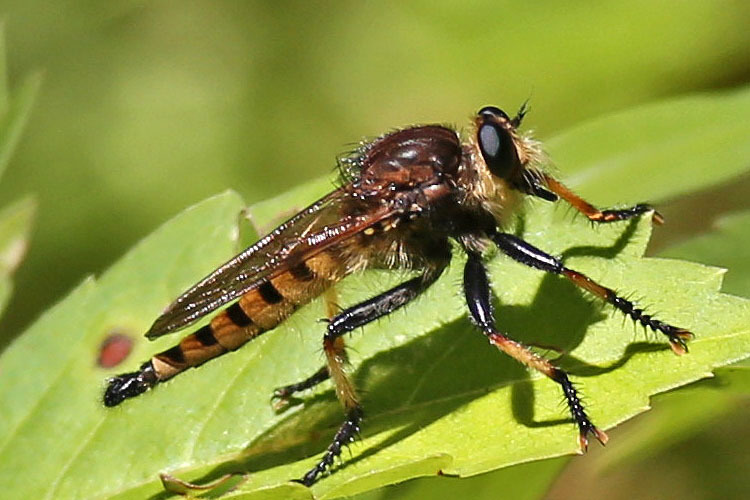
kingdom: Animalia
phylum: Arthropoda
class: Insecta
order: Diptera
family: Asilidae
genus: Promachus
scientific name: Promachus rufipes
